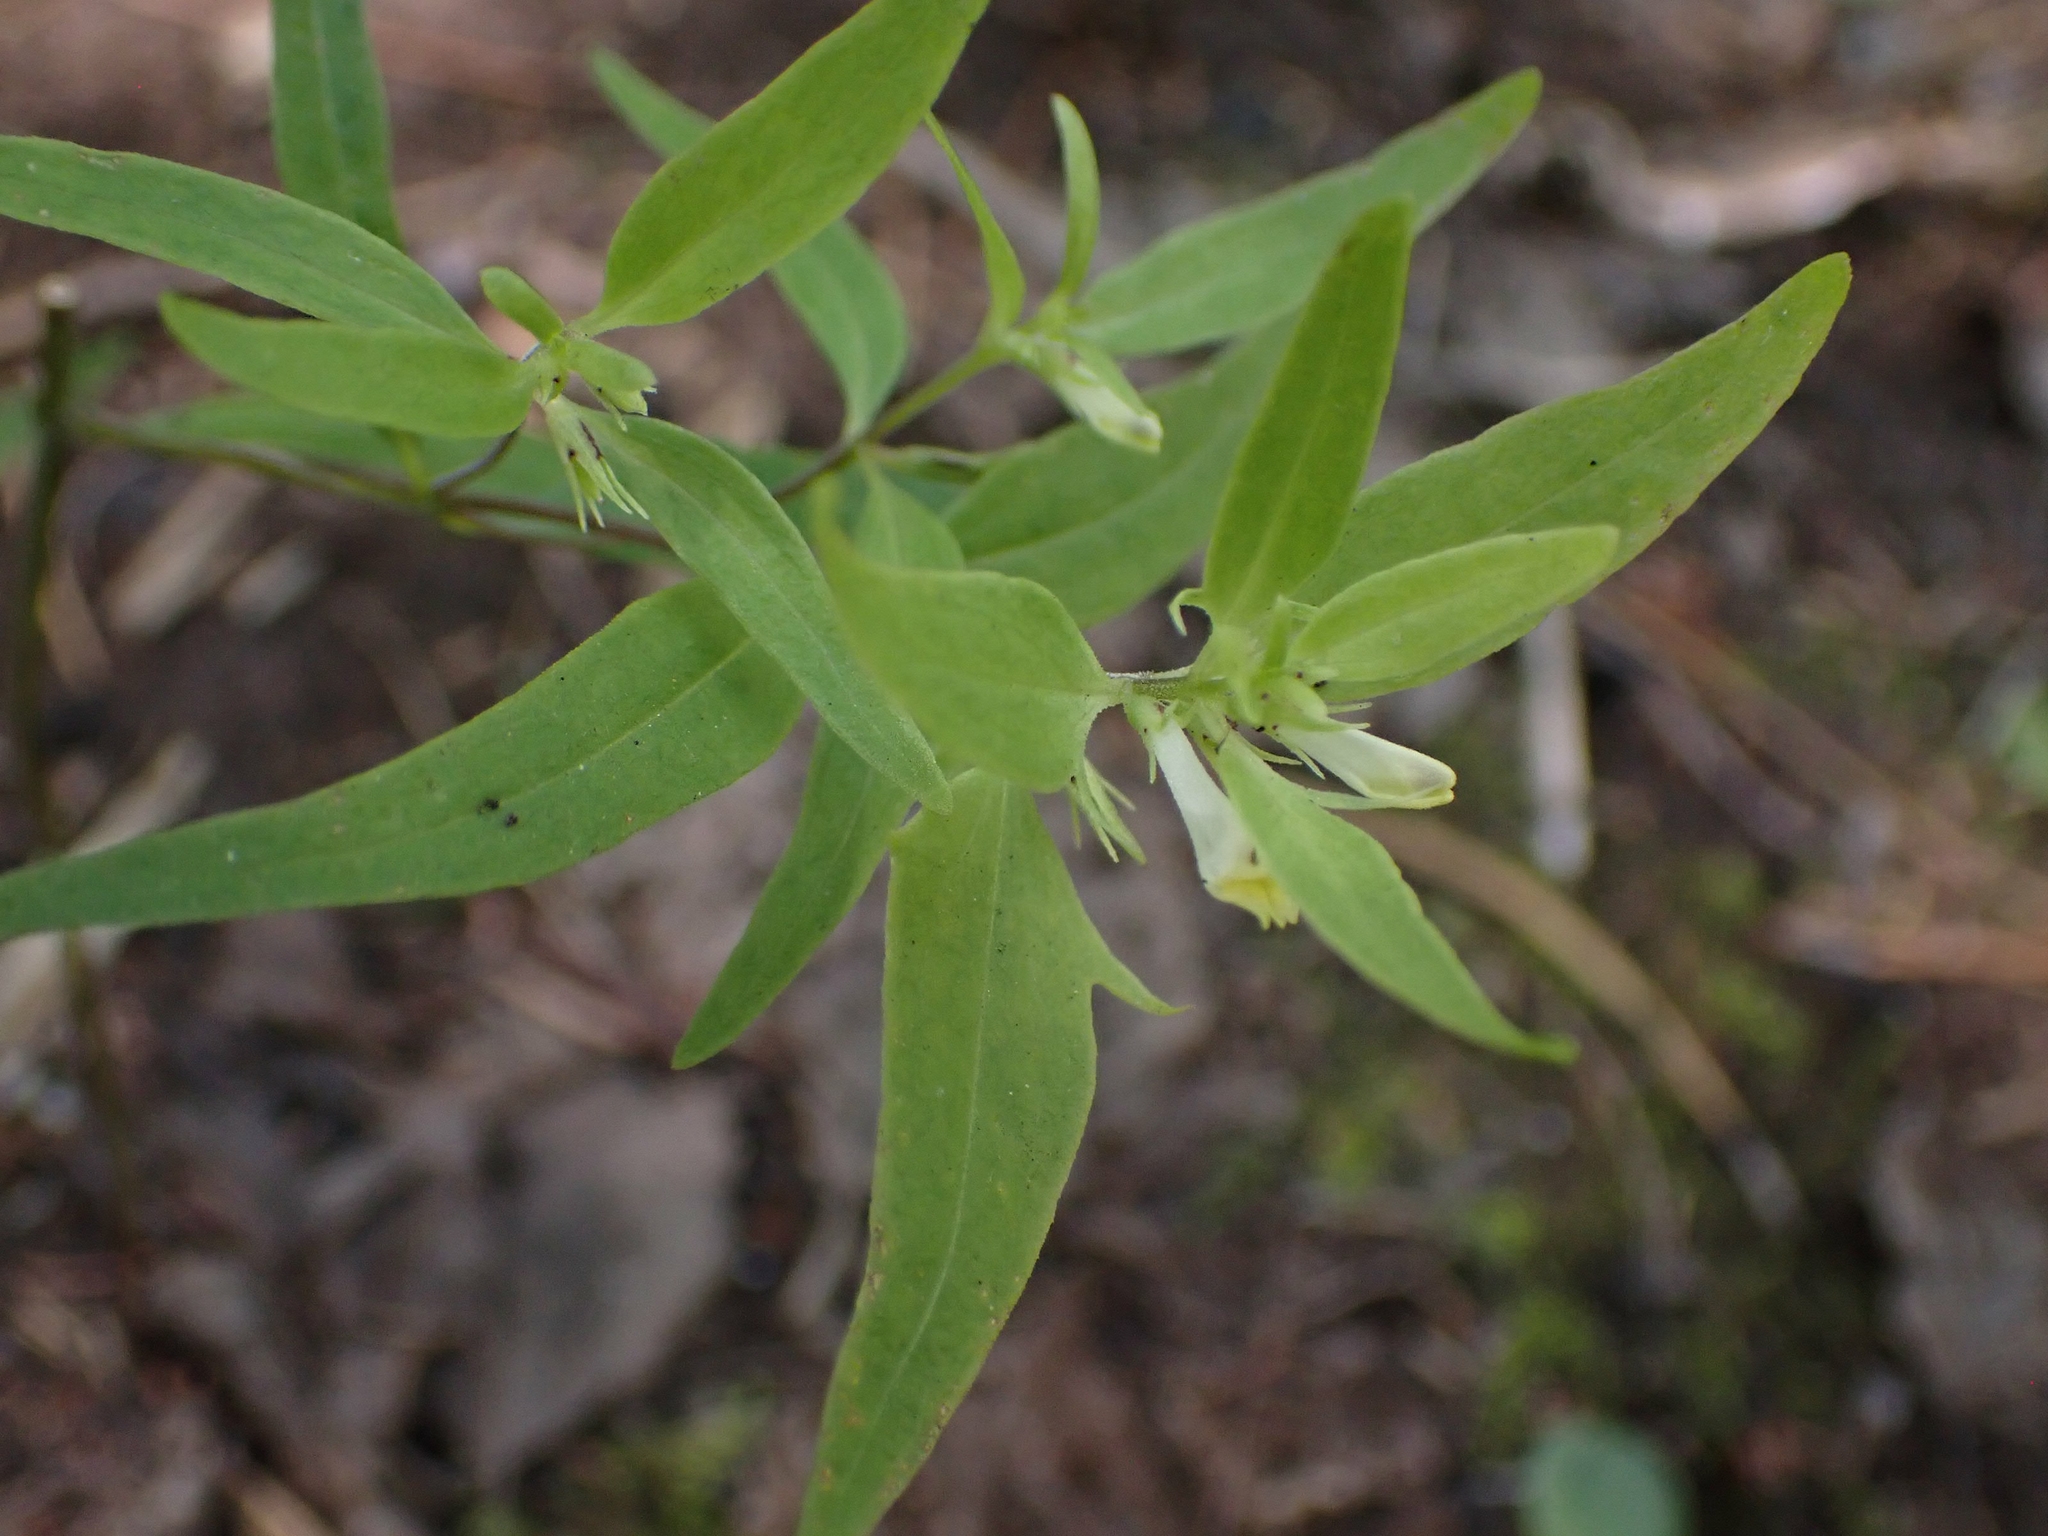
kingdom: Plantae
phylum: Tracheophyta
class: Magnoliopsida
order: Lamiales
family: Orobanchaceae
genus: Melampyrum
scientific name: Melampyrum lineare
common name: American cow-wheat
